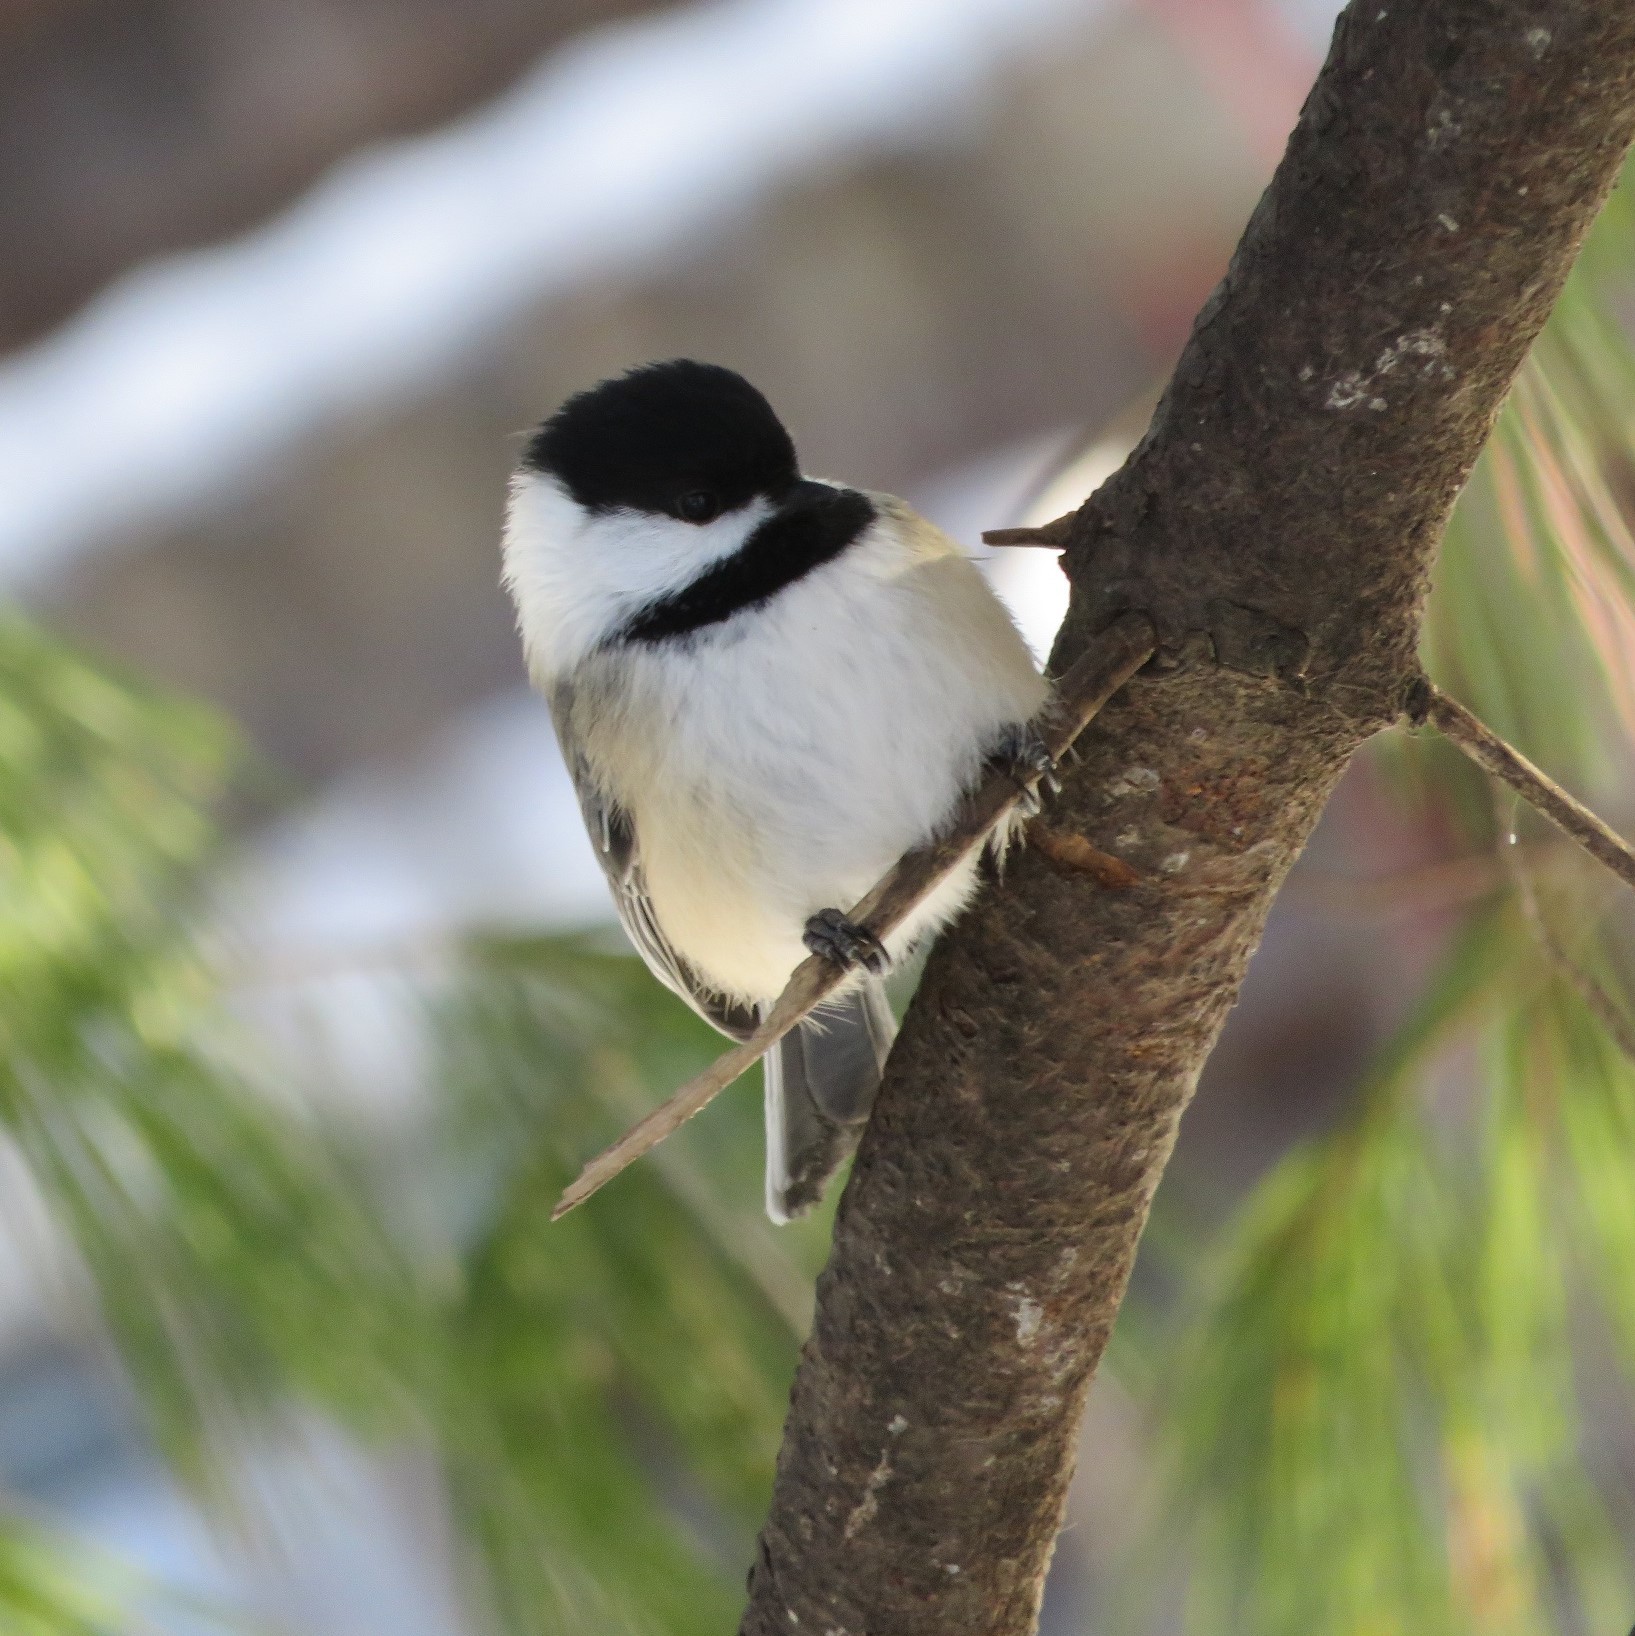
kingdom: Animalia
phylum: Chordata
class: Aves
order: Passeriformes
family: Paridae
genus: Poecile
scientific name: Poecile atricapillus
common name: Black-capped chickadee
